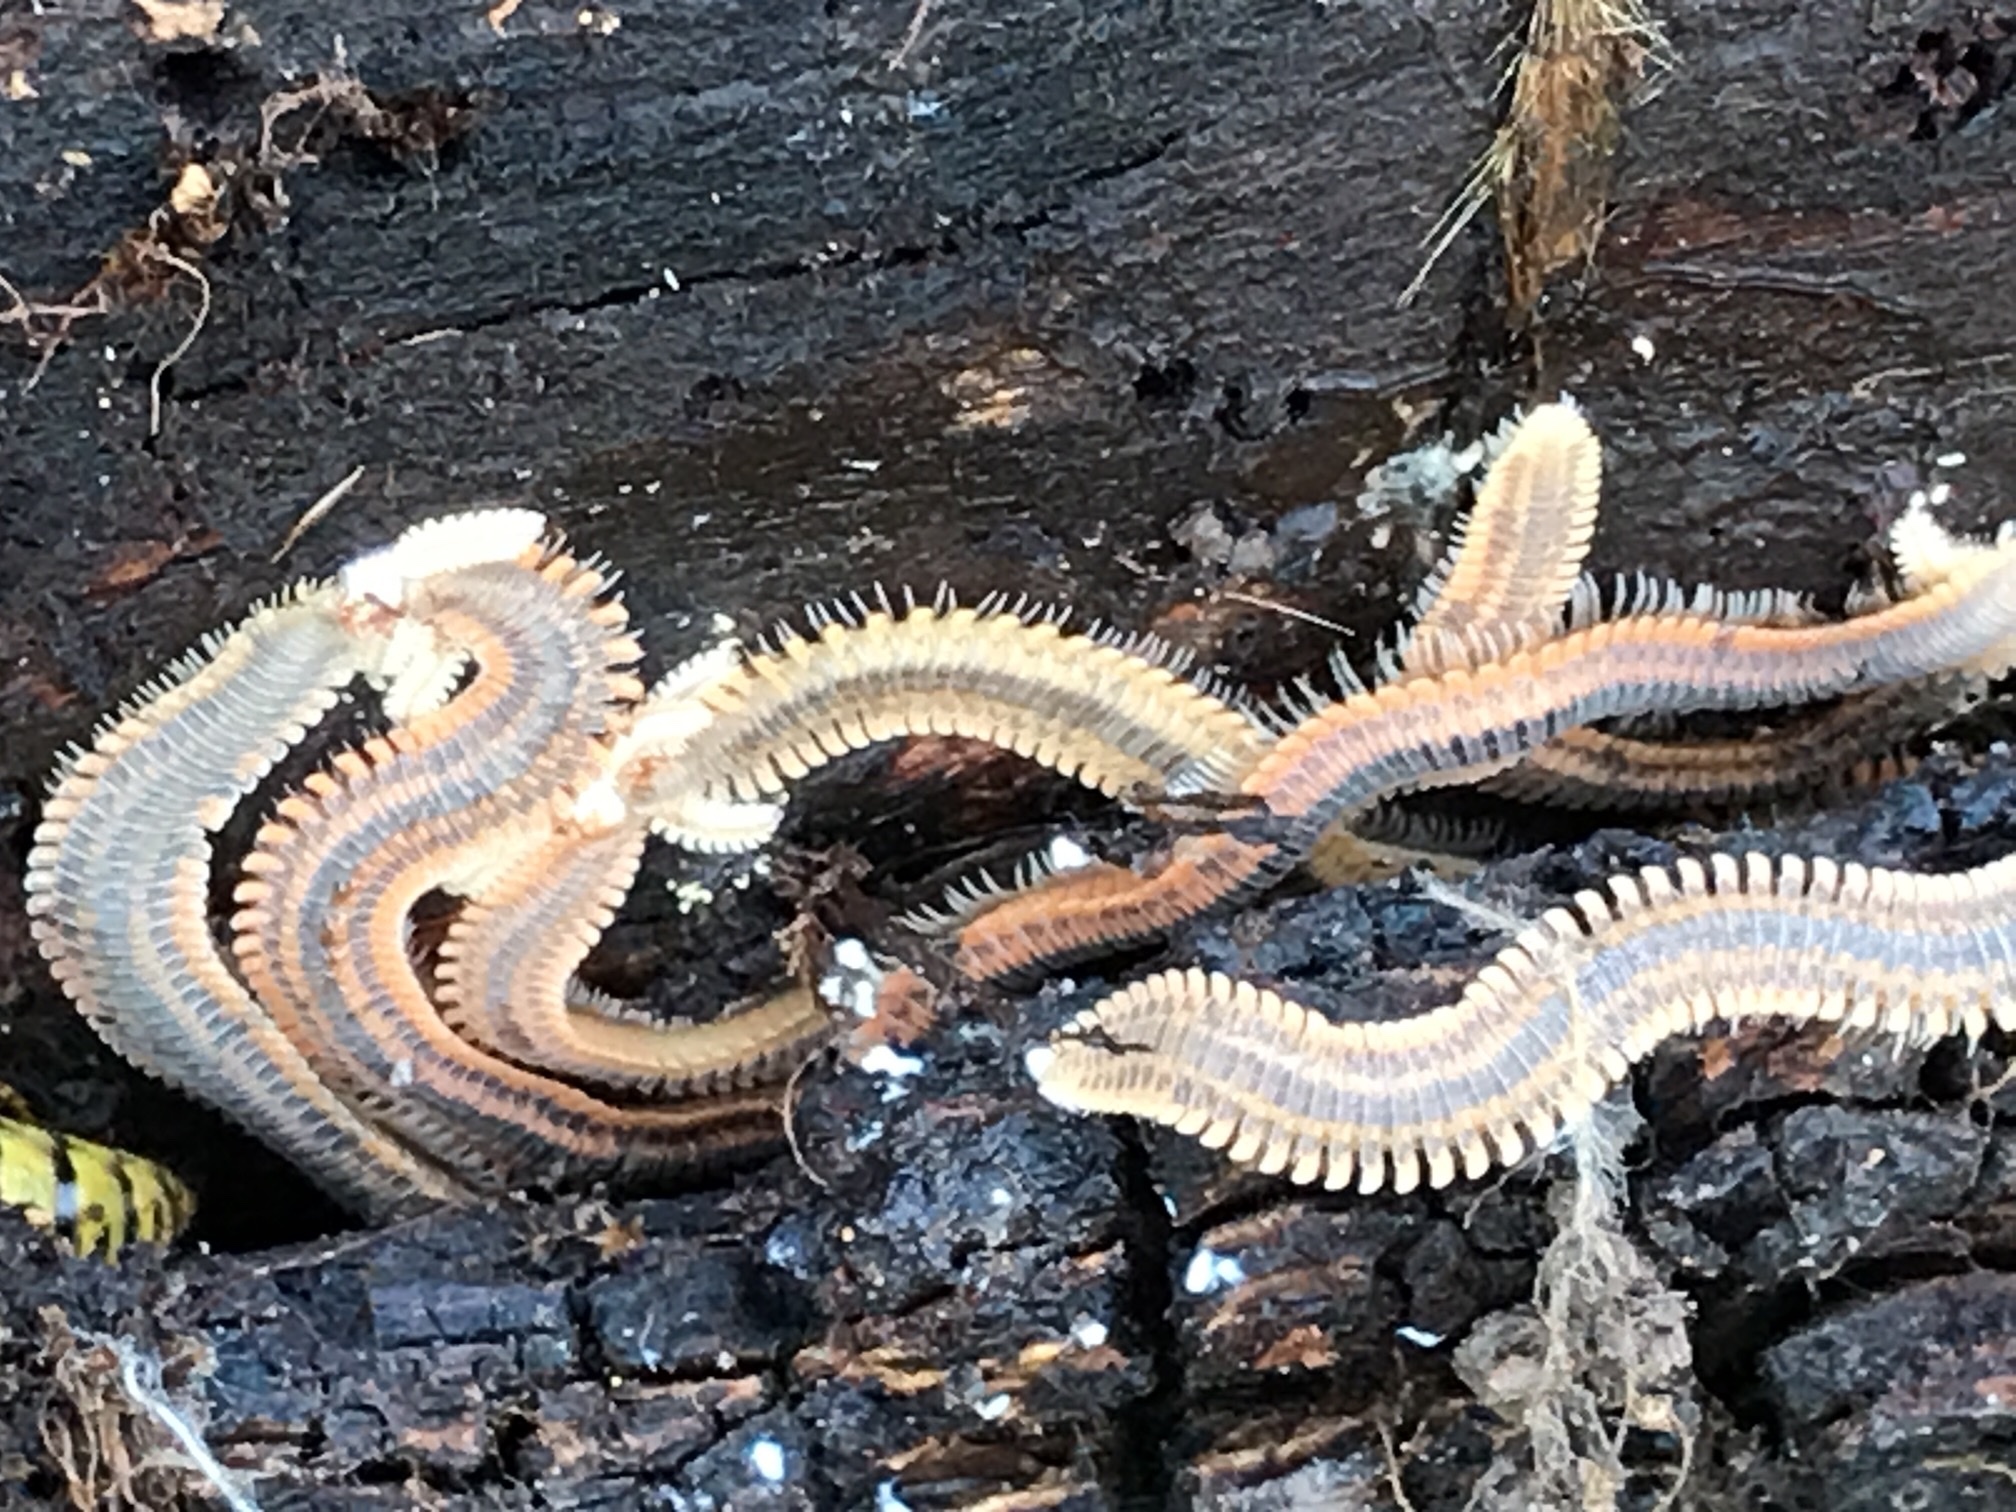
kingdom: Animalia
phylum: Arthropoda
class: Diplopoda
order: Platydesmida
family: Andrognathidae
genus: Brachycybe
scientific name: Brachycybe producta
